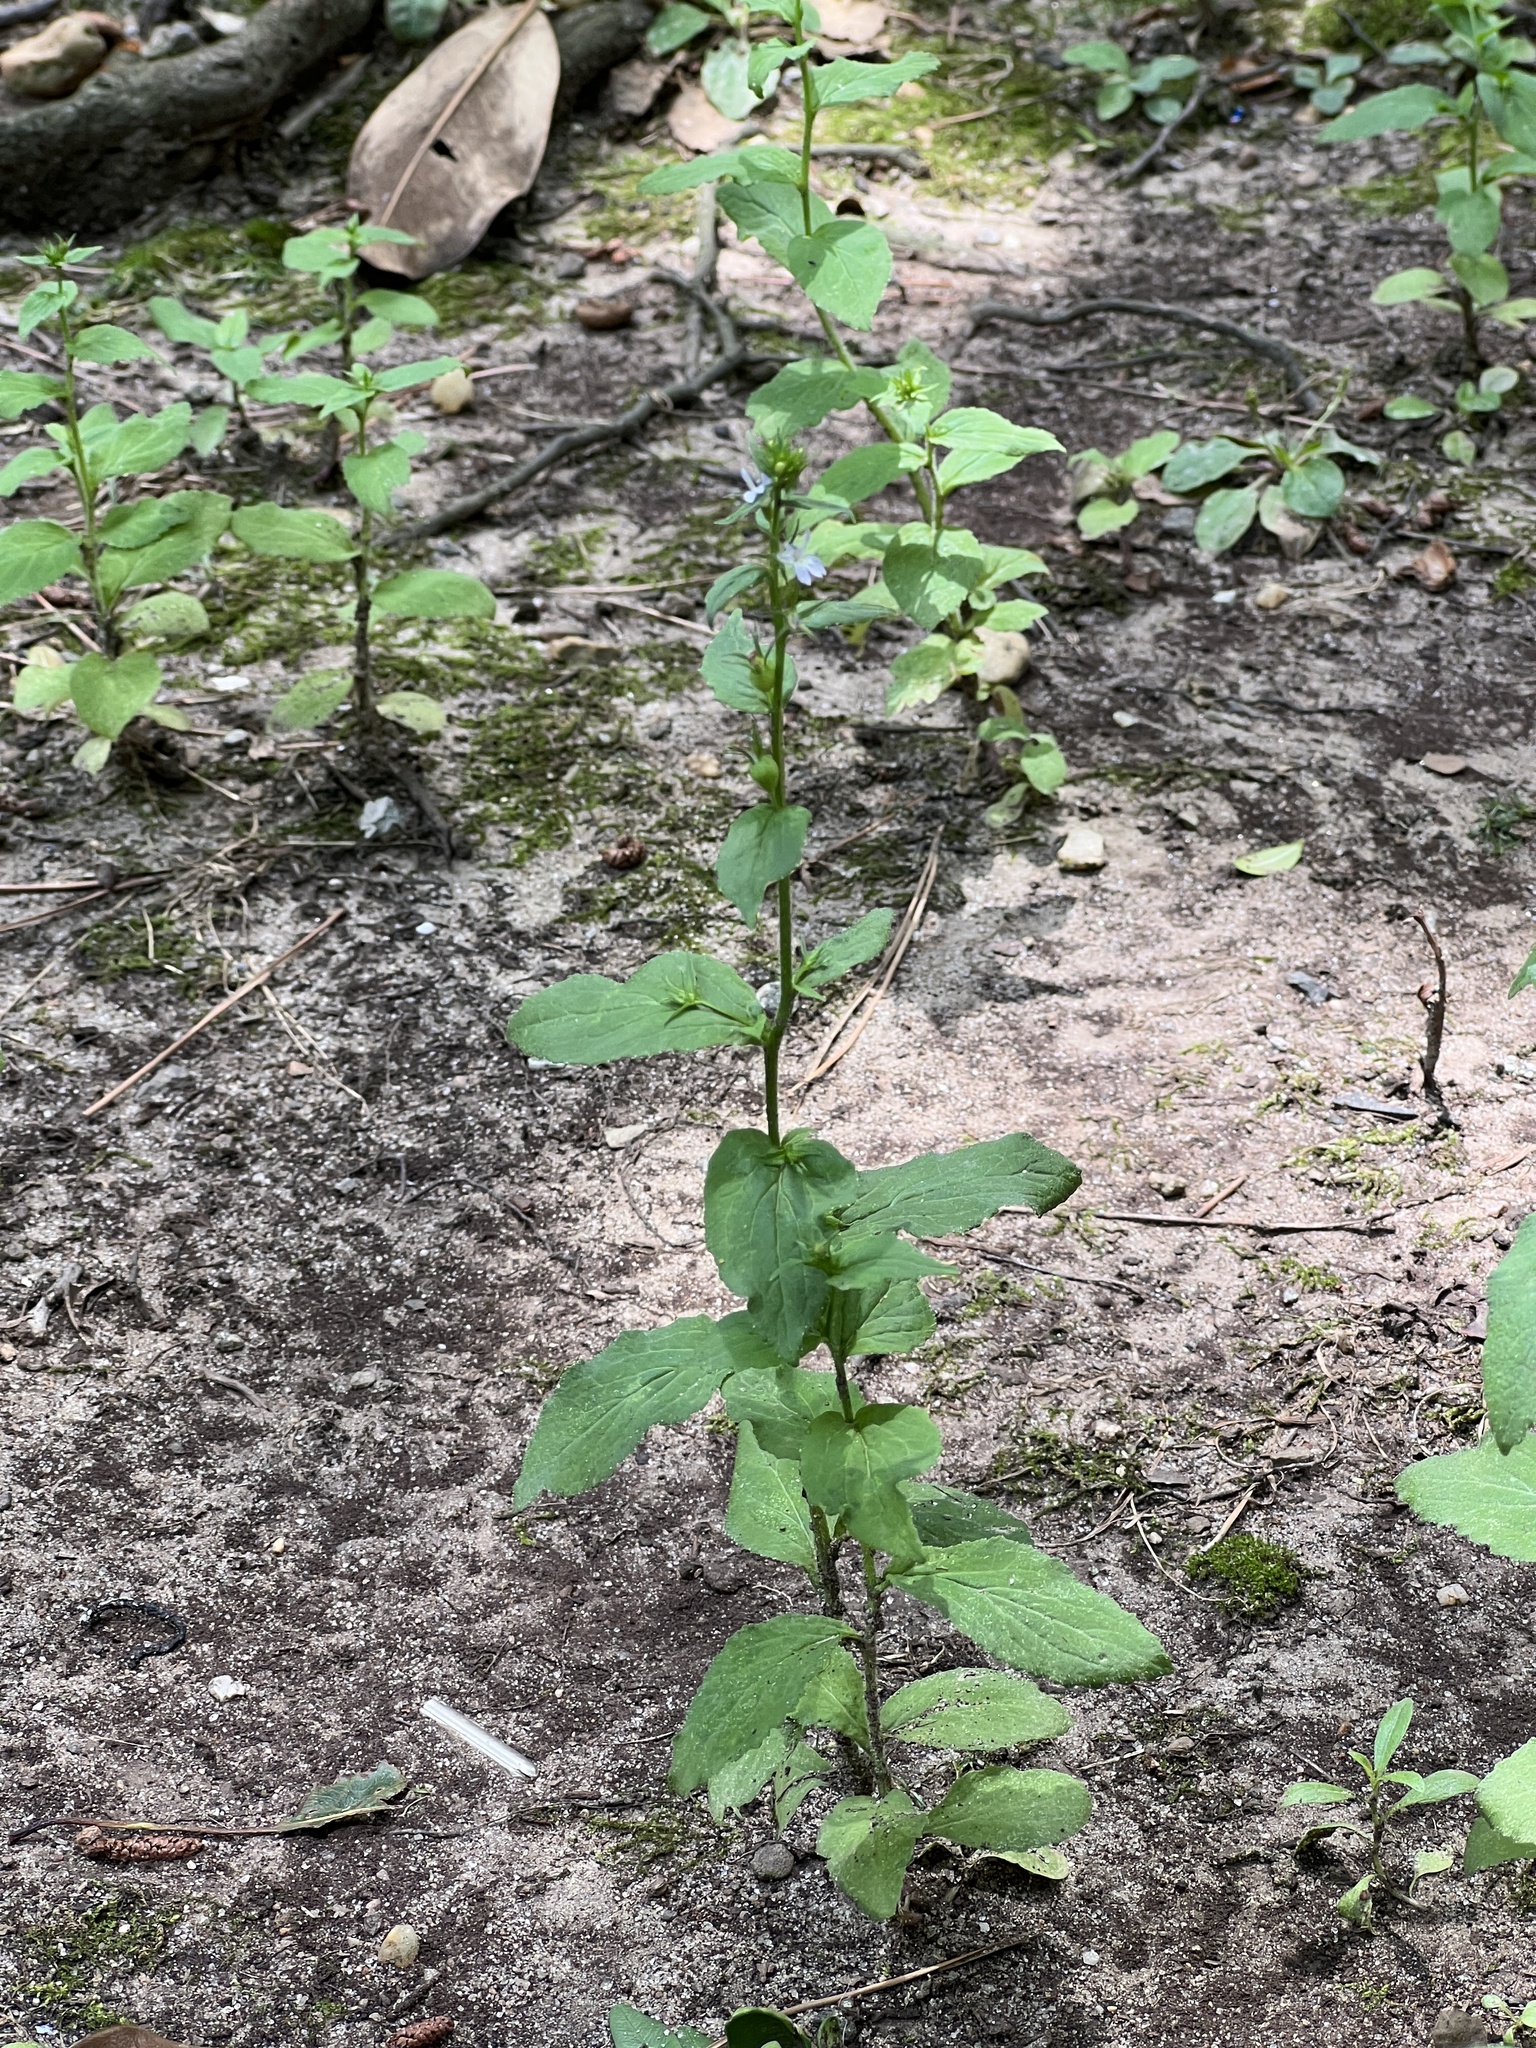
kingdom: Plantae
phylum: Tracheophyta
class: Magnoliopsida
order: Asterales
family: Campanulaceae
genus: Lobelia
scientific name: Lobelia inflata
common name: Indian tobacco
